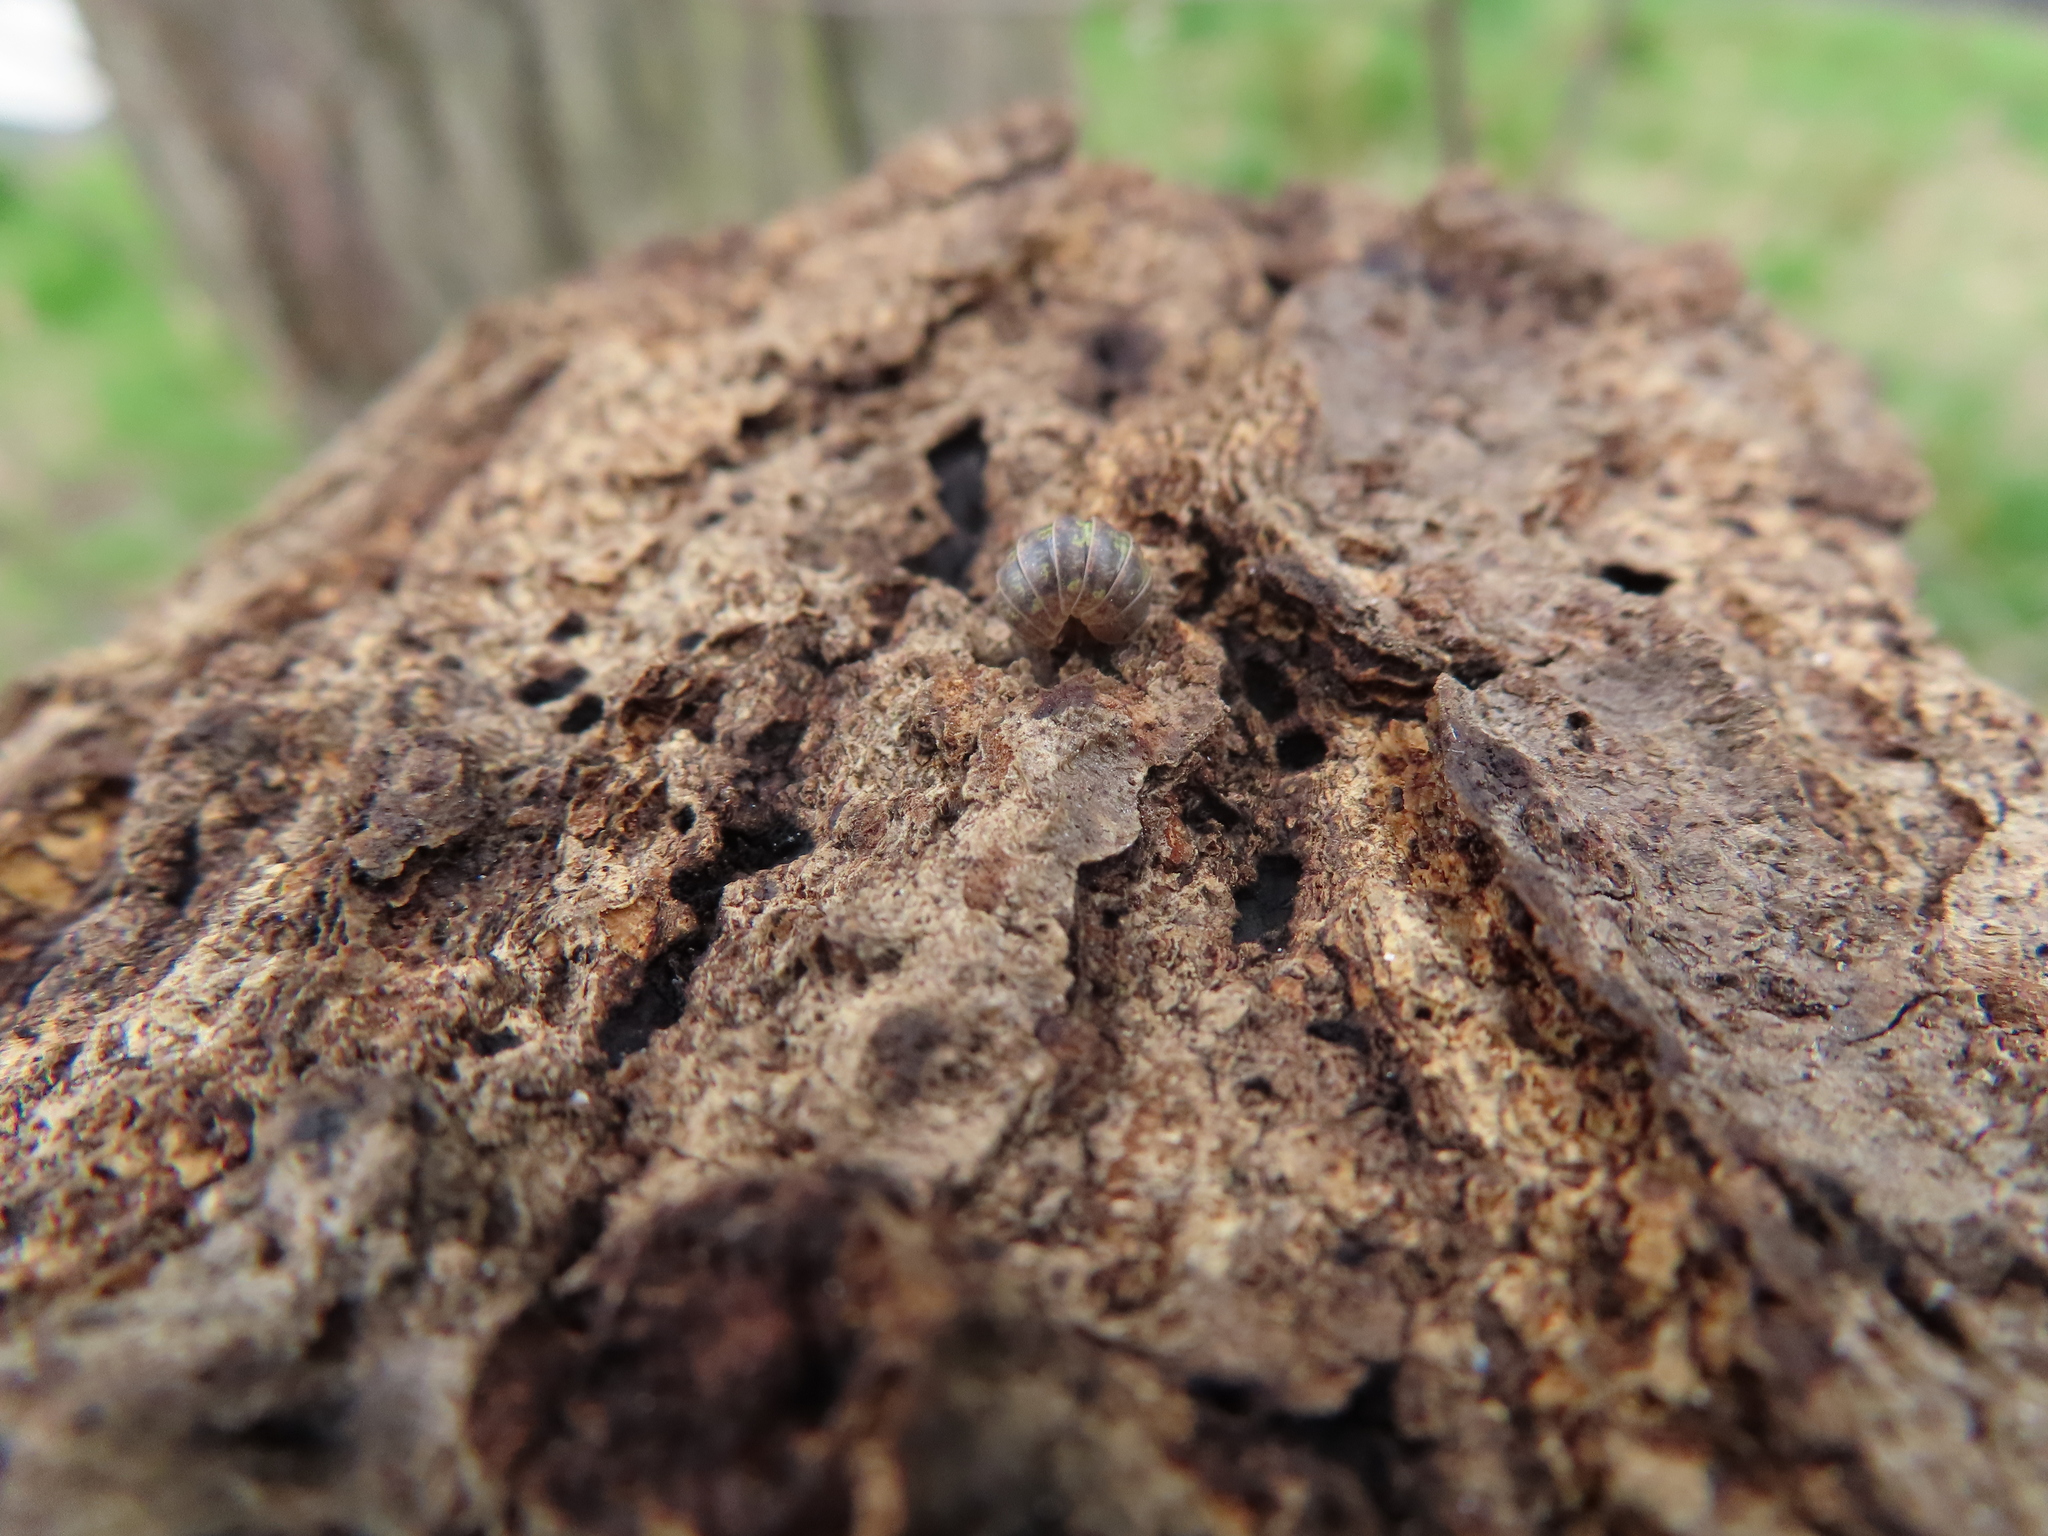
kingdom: Animalia
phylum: Arthropoda
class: Malacostraca
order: Isopoda
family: Armadillidiidae
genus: Armadillidium
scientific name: Armadillidium vulgare
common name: Common pill woodlouse
